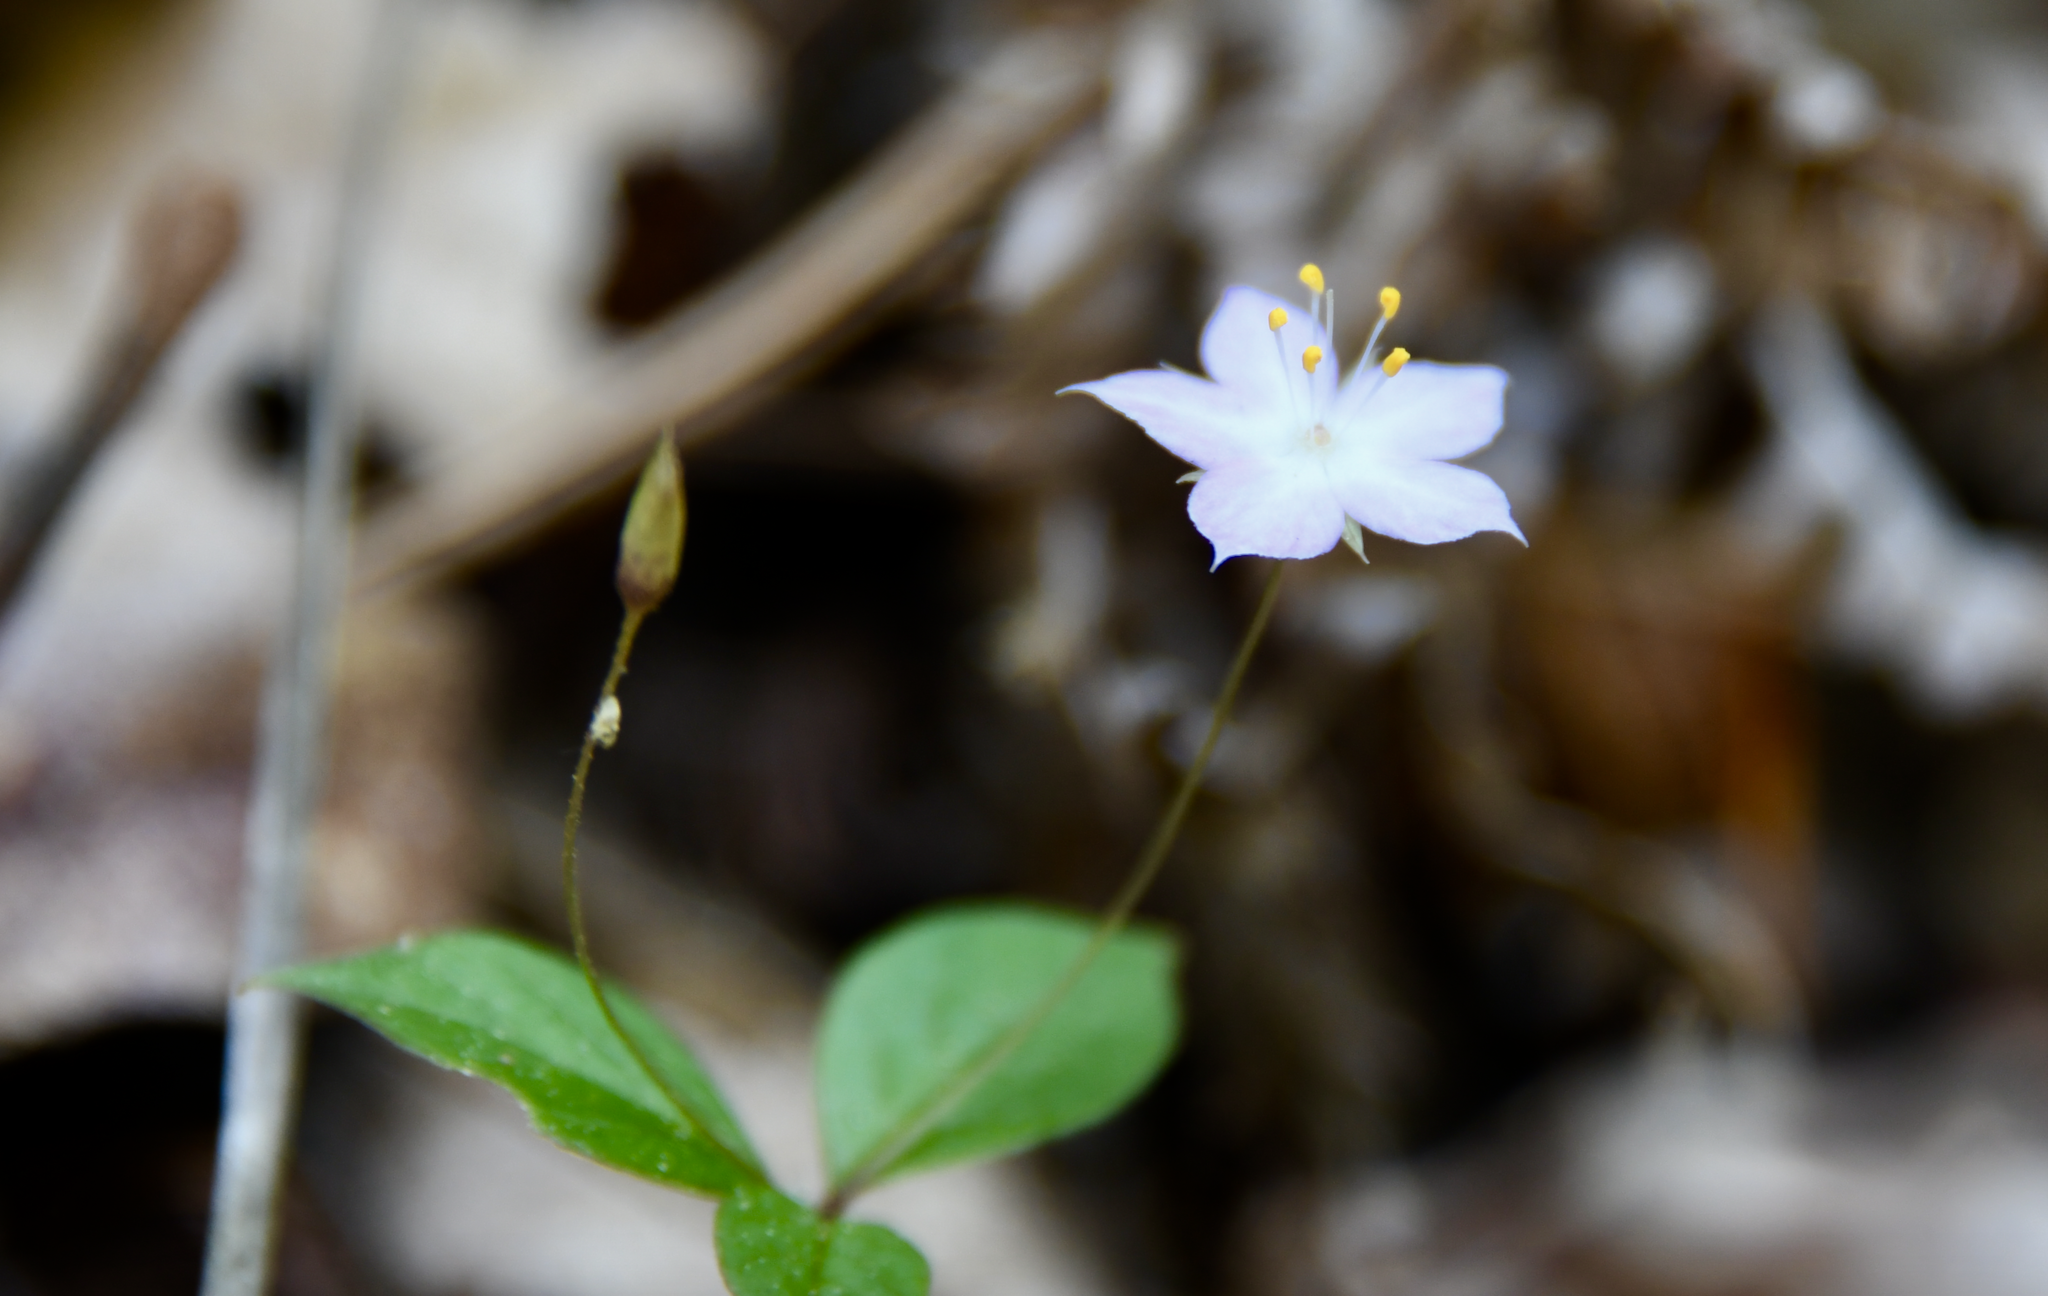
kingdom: Plantae
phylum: Tracheophyta
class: Magnoliopsida
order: Ericales
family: Primulaceae
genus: Lysimachia
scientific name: Lysimachia latifolia
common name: Pacific starflower
